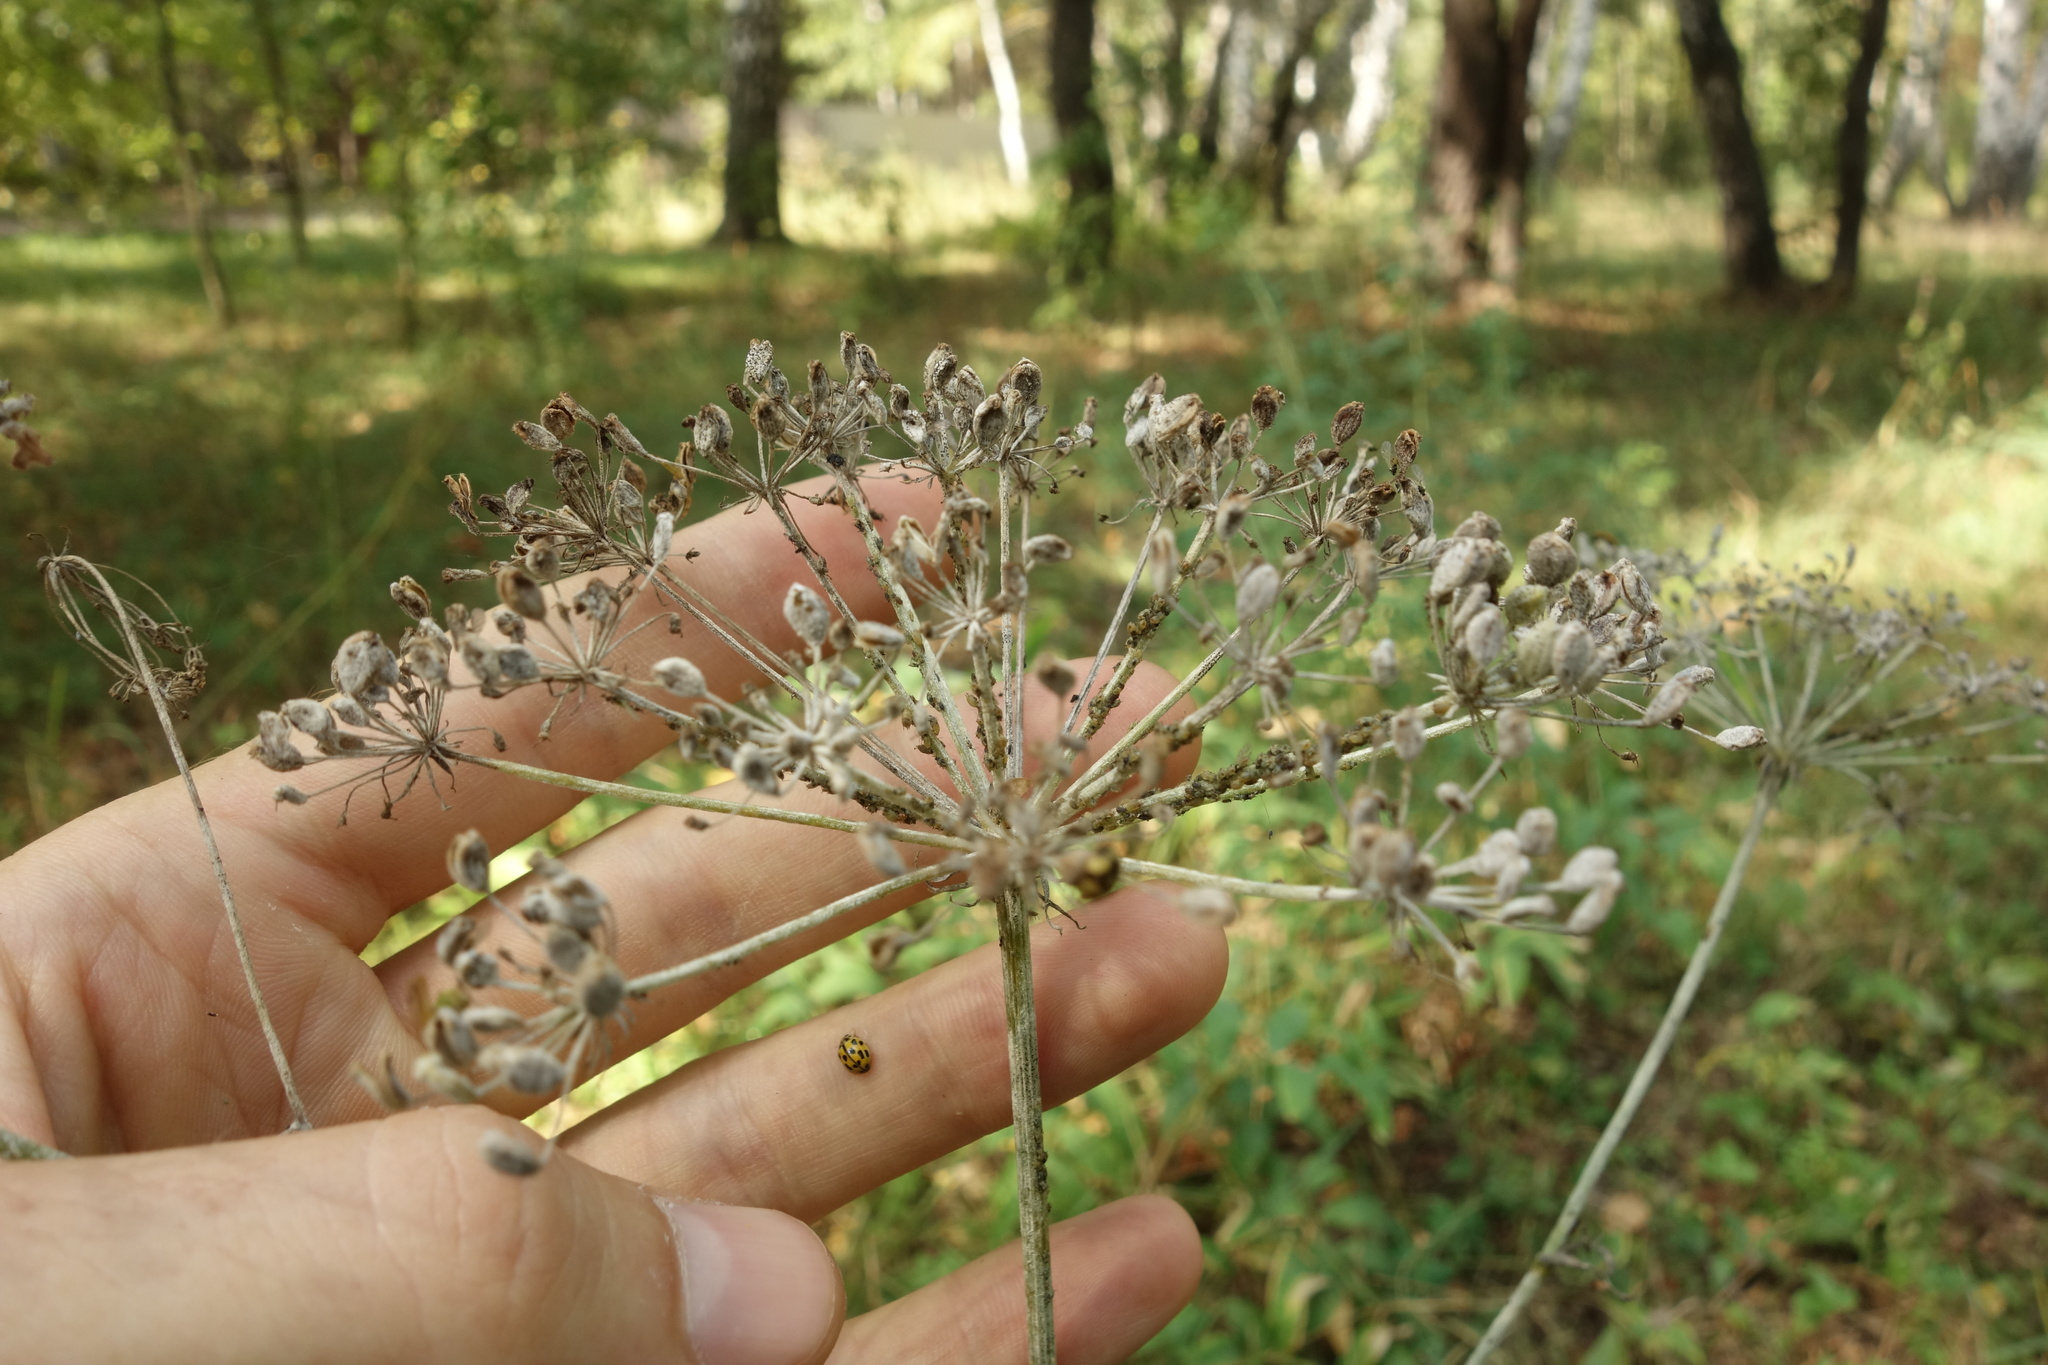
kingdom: Plantae
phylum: Tracheophyta
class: Magnoliopsida
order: Apiales
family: Apiaceae
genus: Oreoselinum
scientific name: Oreoselinum nigrum
